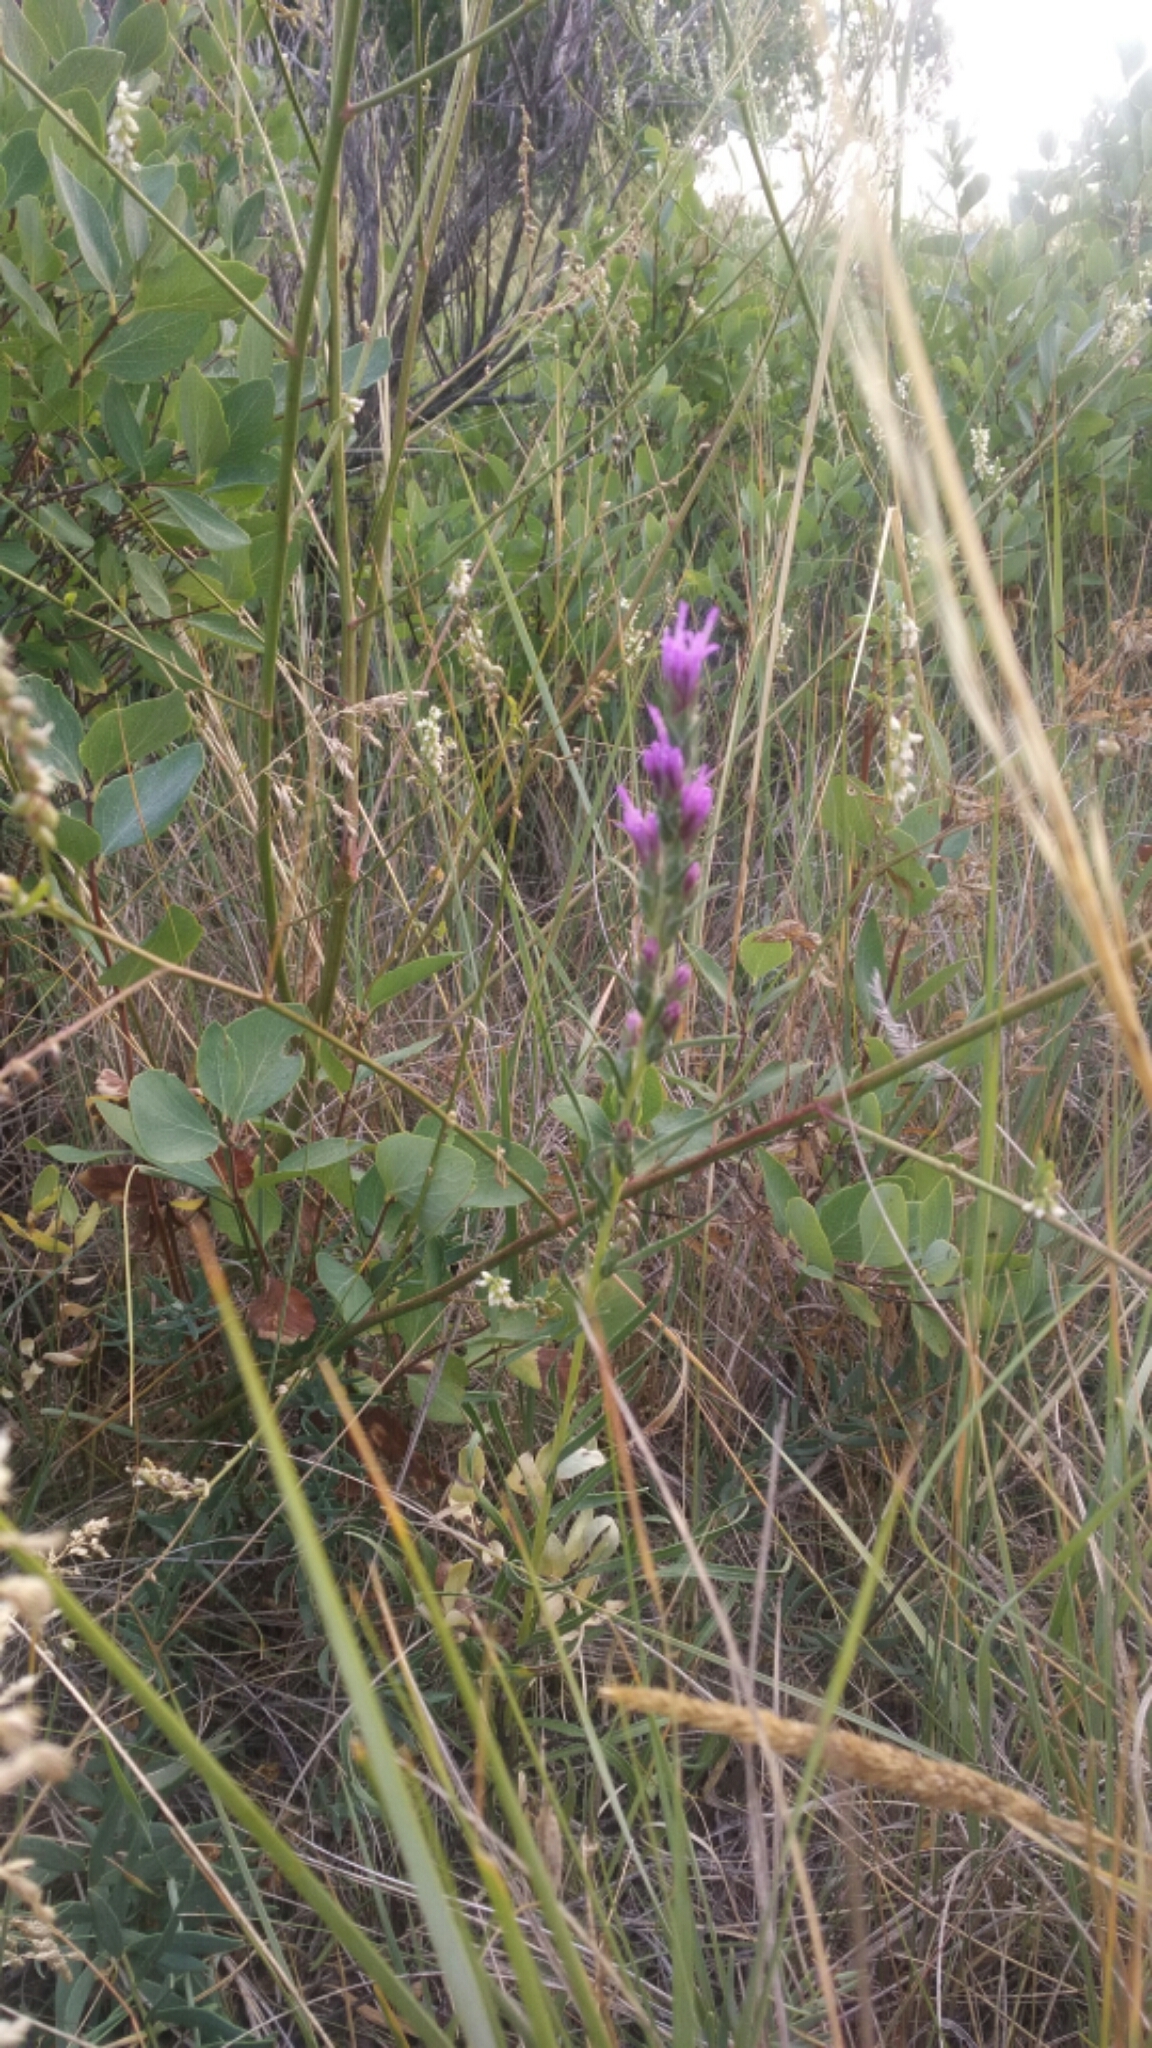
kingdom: Plantae
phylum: Tracheophyta
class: Magnoliopsida
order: Asterales
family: Asteraceae
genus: Liatris
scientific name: Liatris punctata
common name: Dotted gayfeather
